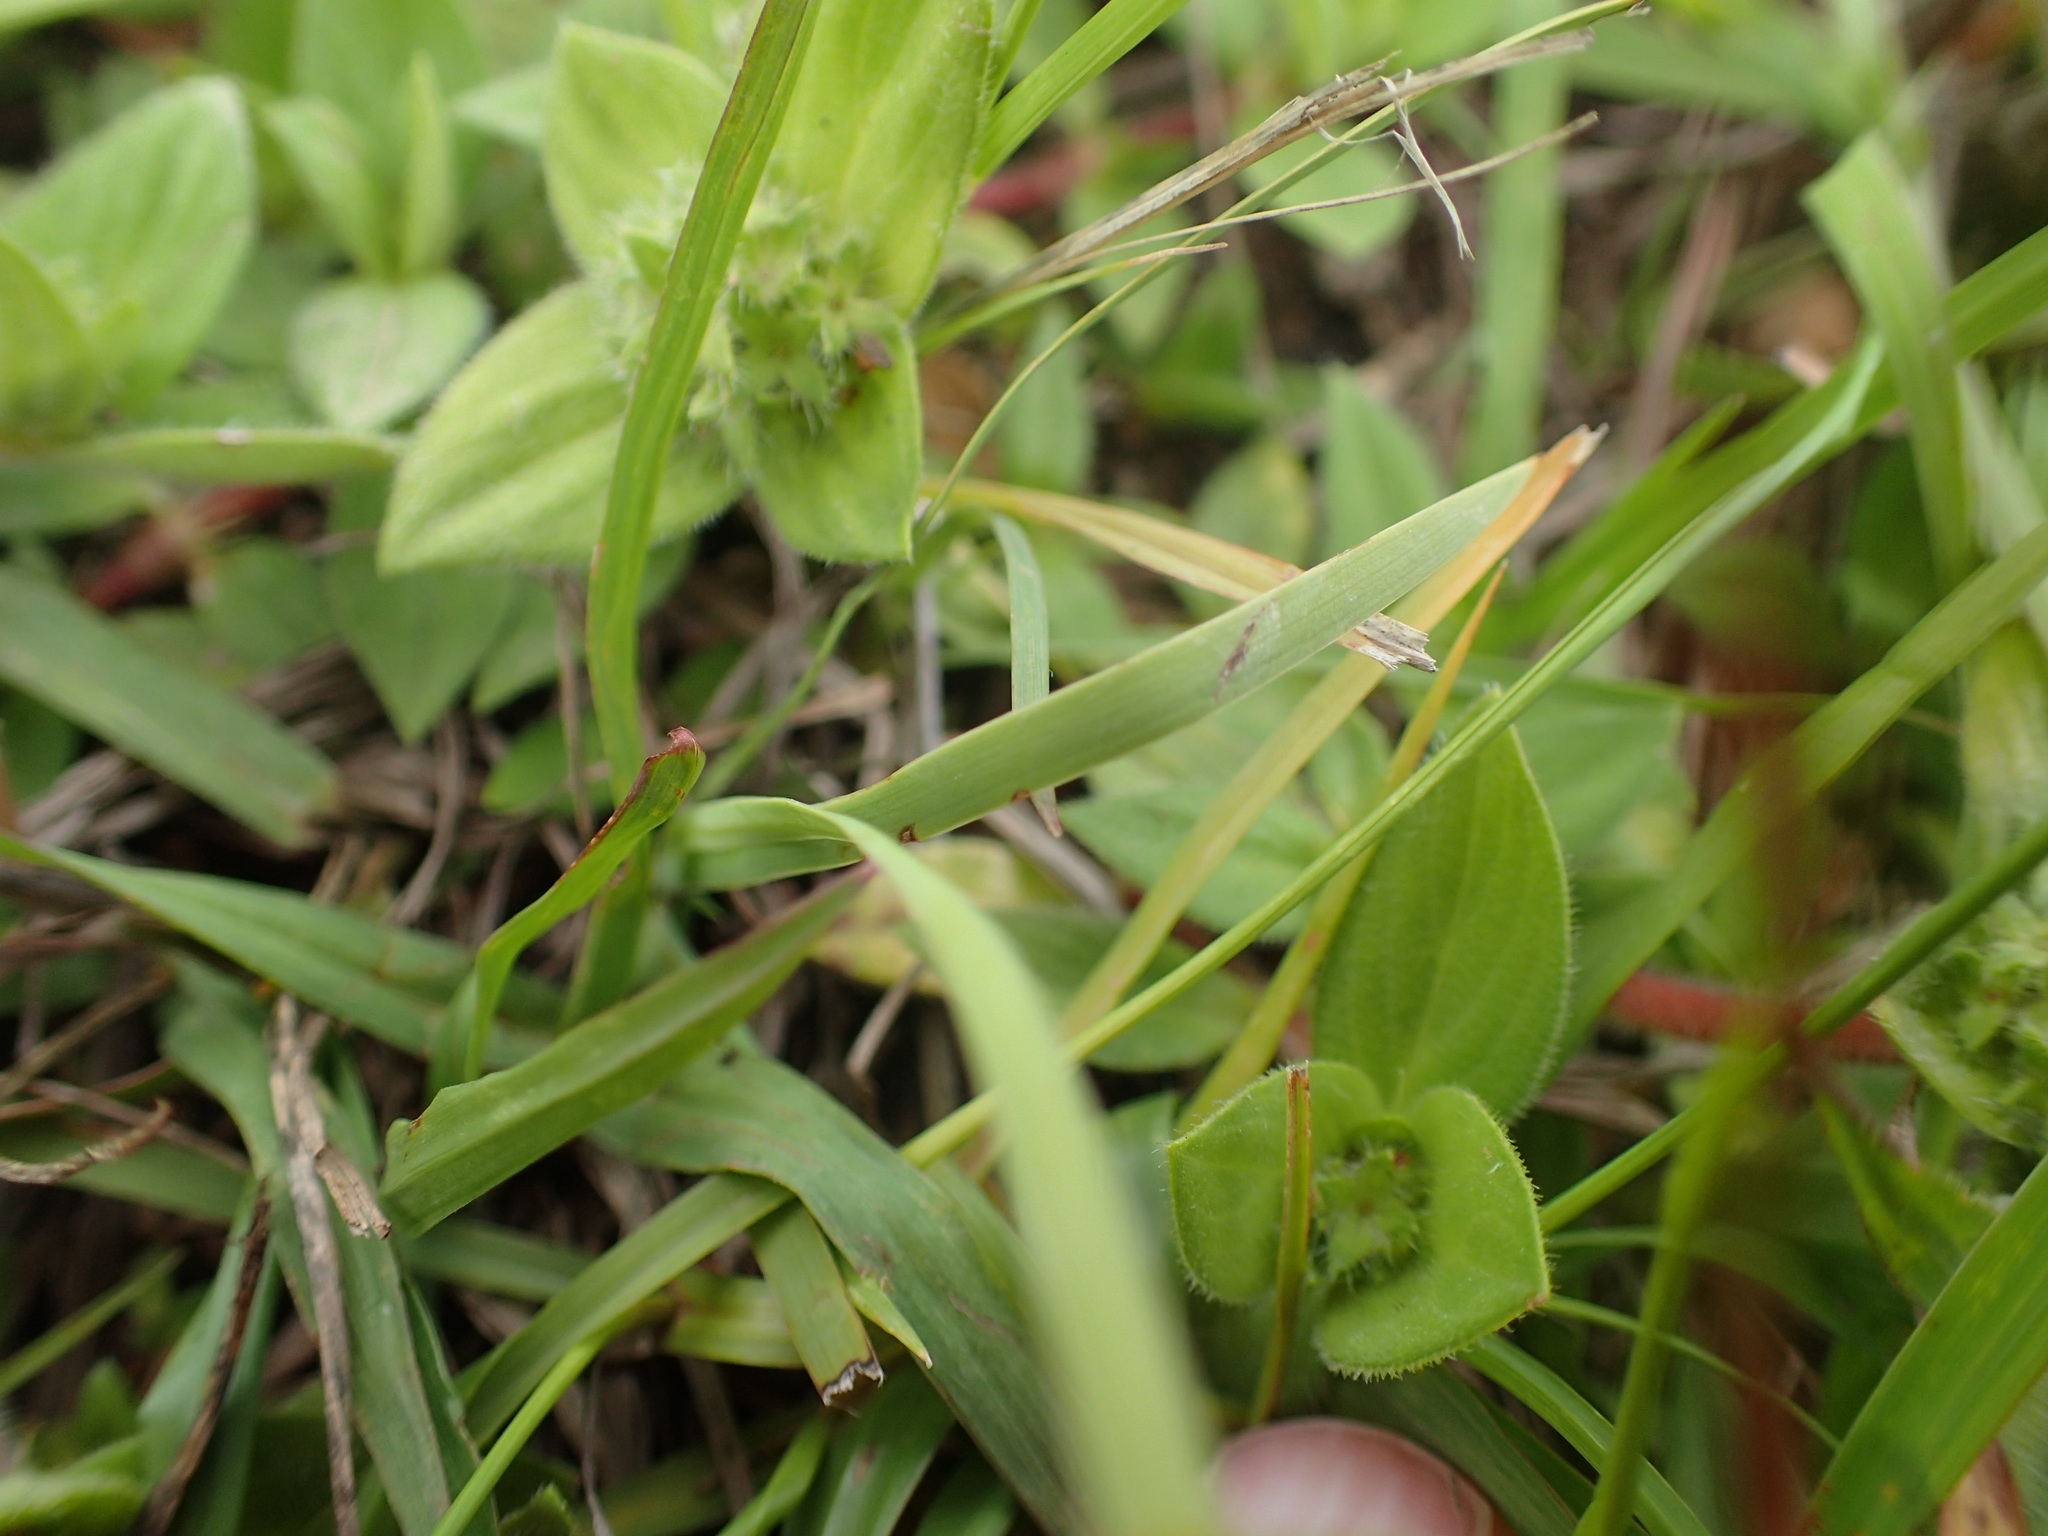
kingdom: Plantae
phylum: Tracheophyta
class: Liliopsida
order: Asparagales
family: Iridaceae
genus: Aristea
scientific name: Aristea abyssinica
